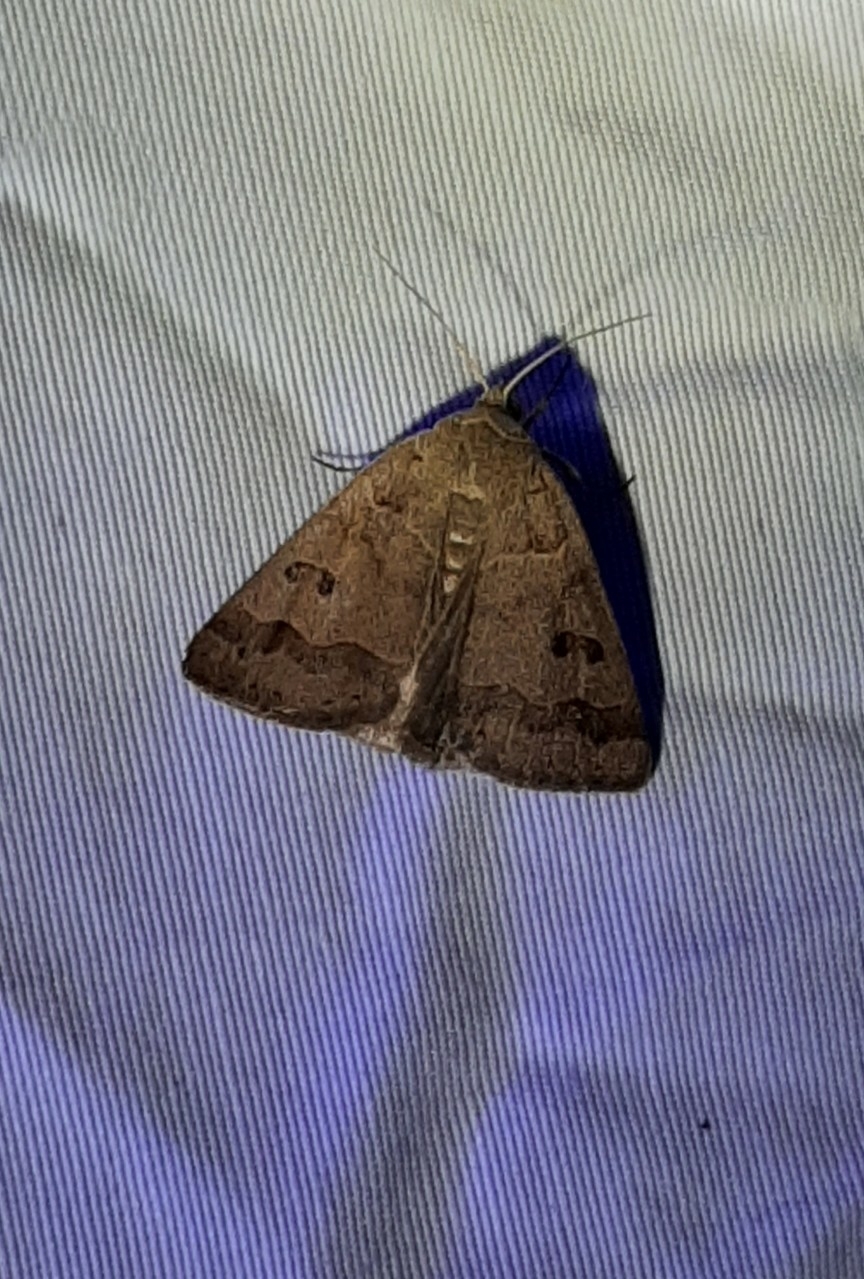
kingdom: Animalia
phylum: Arthropoda
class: Insecta
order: Lepidoptera
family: Erebidae
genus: Phoberia
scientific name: Phoberia atomaris
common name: Common oak moth
